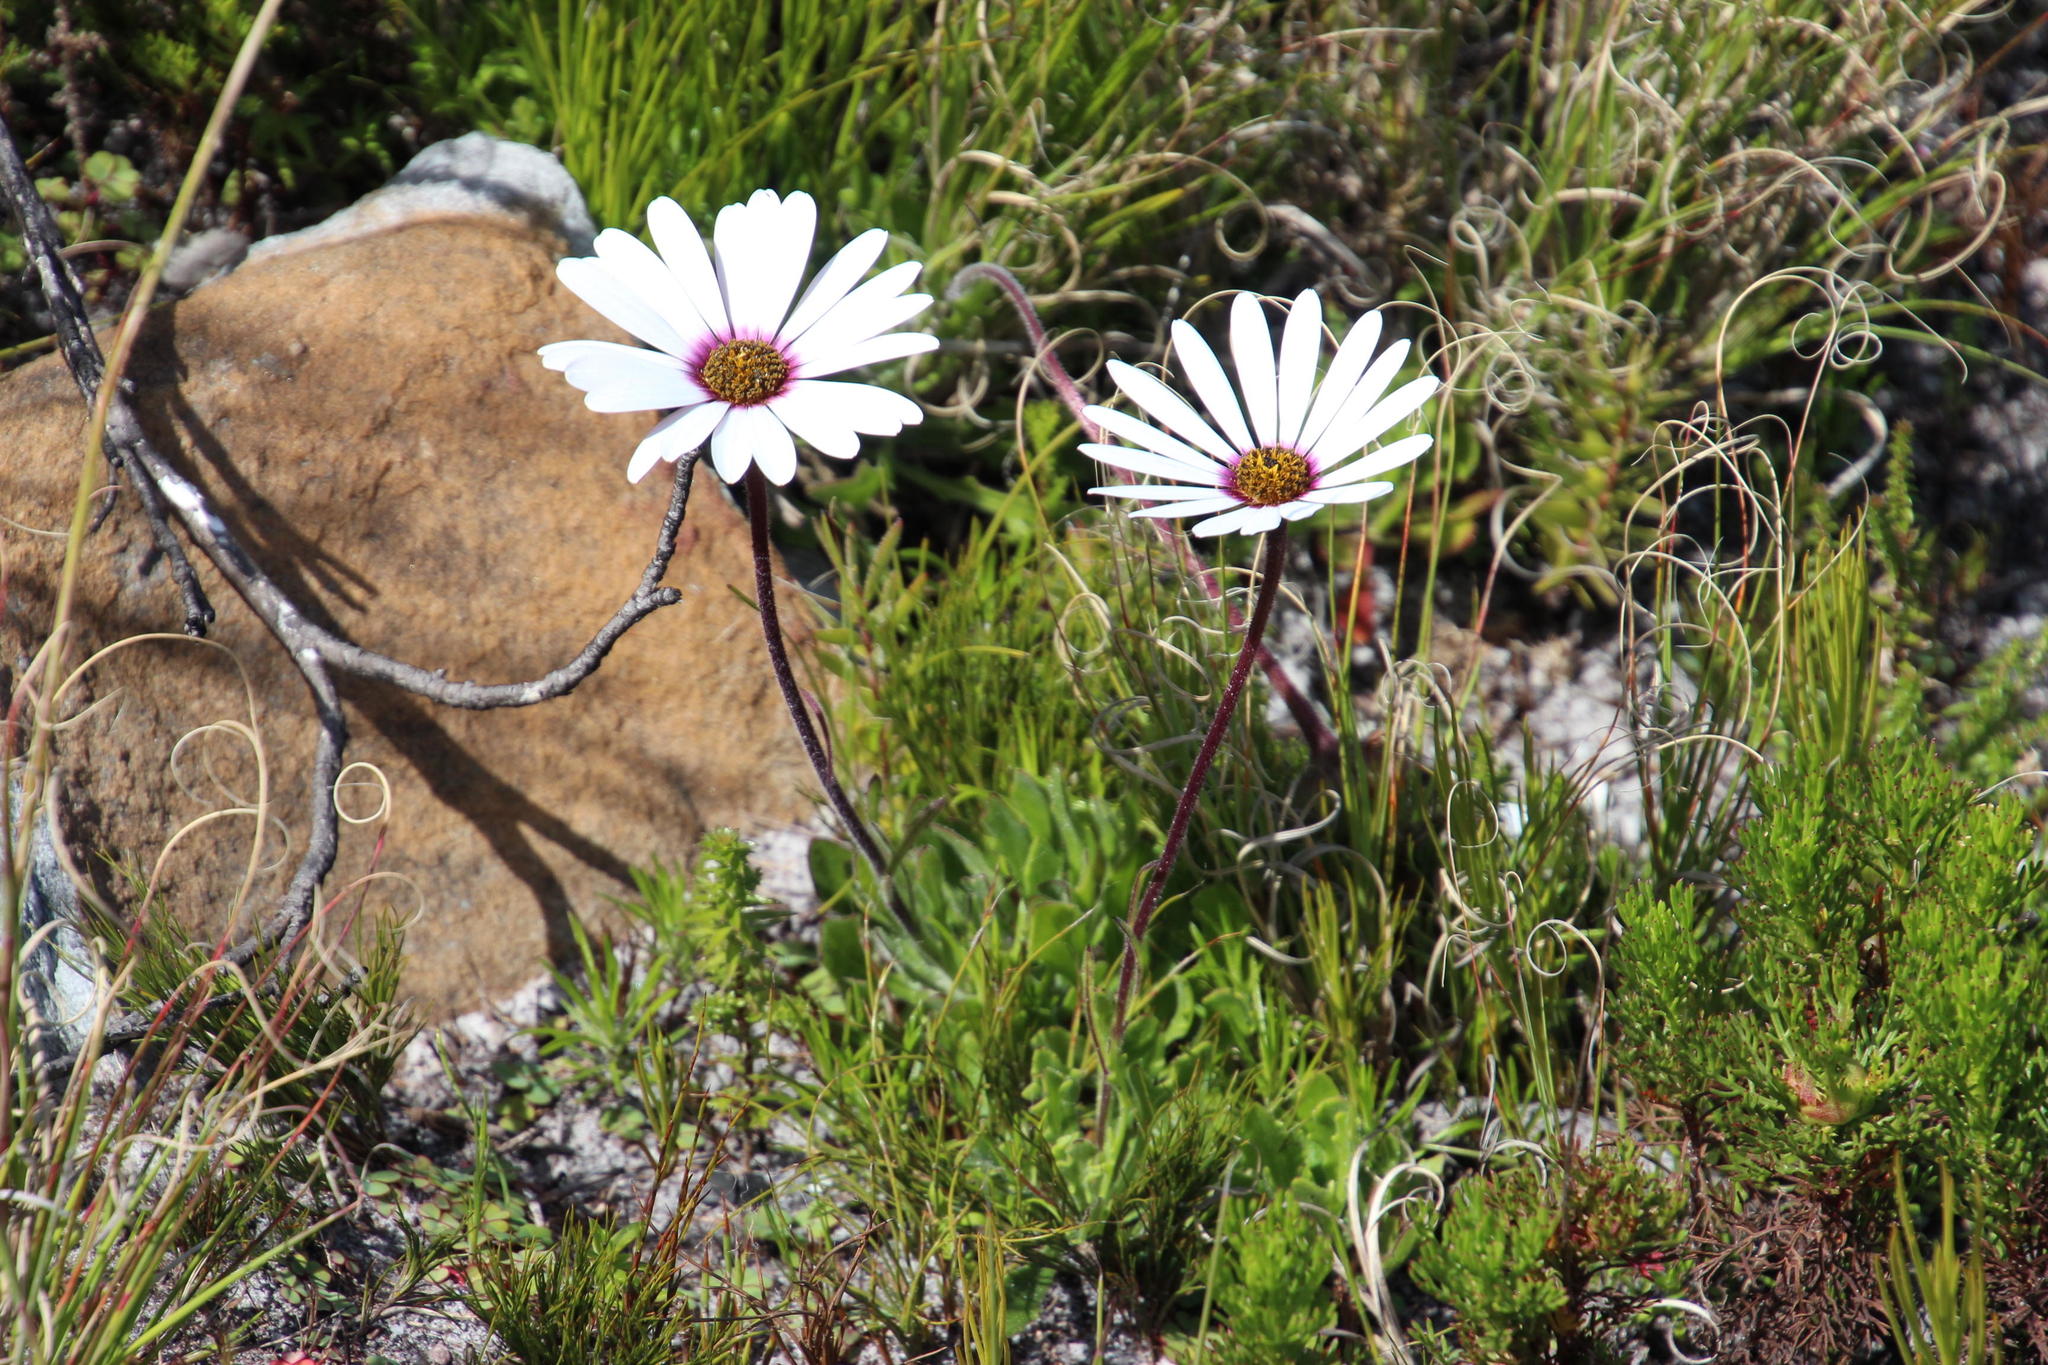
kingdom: Plantae
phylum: Tracheophyta
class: Magnoliopsida
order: Asterales
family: Asteraceae
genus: Dimorphotheca
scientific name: Dimorphotheca nudicaulis
